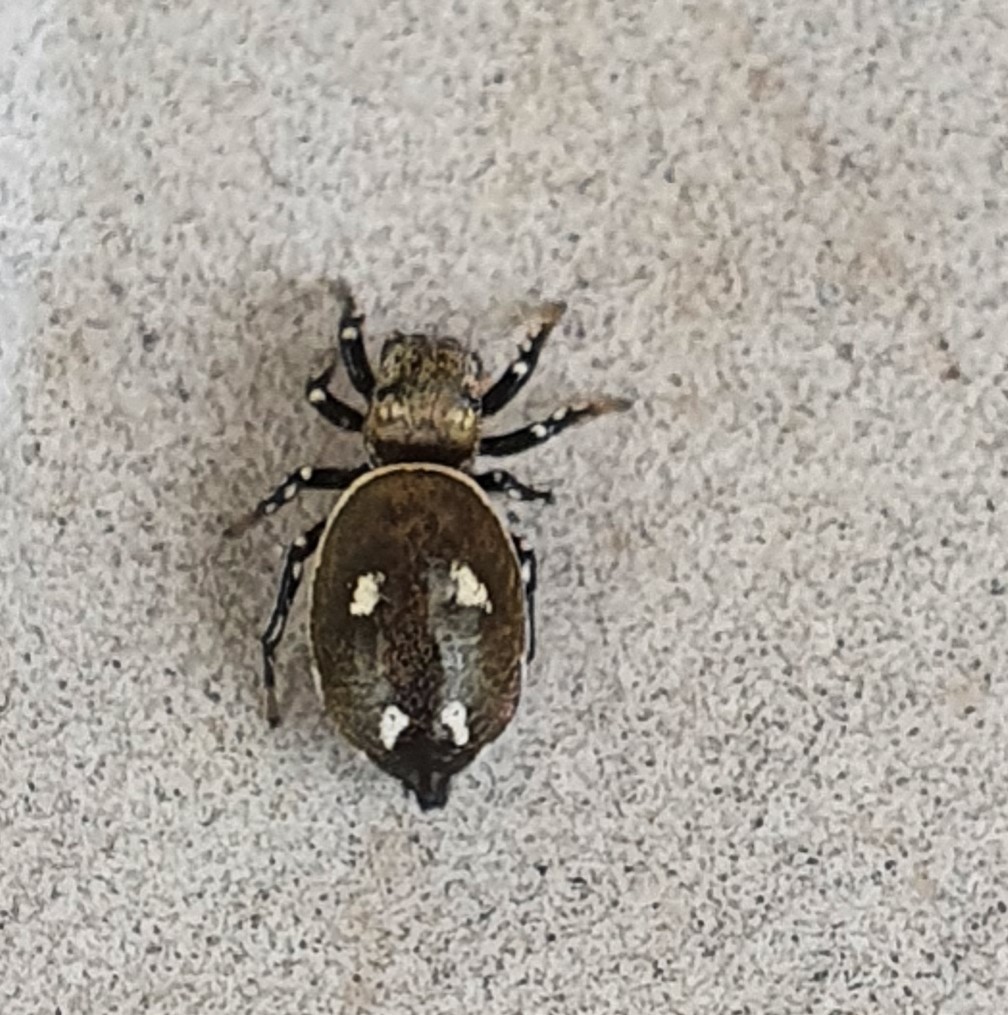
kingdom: Animalia
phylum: Arthropoda
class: Arachnida
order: Araneae
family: Salticidae
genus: Heliophanus
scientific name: Heliophanus kochii
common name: Sun jumping spider
